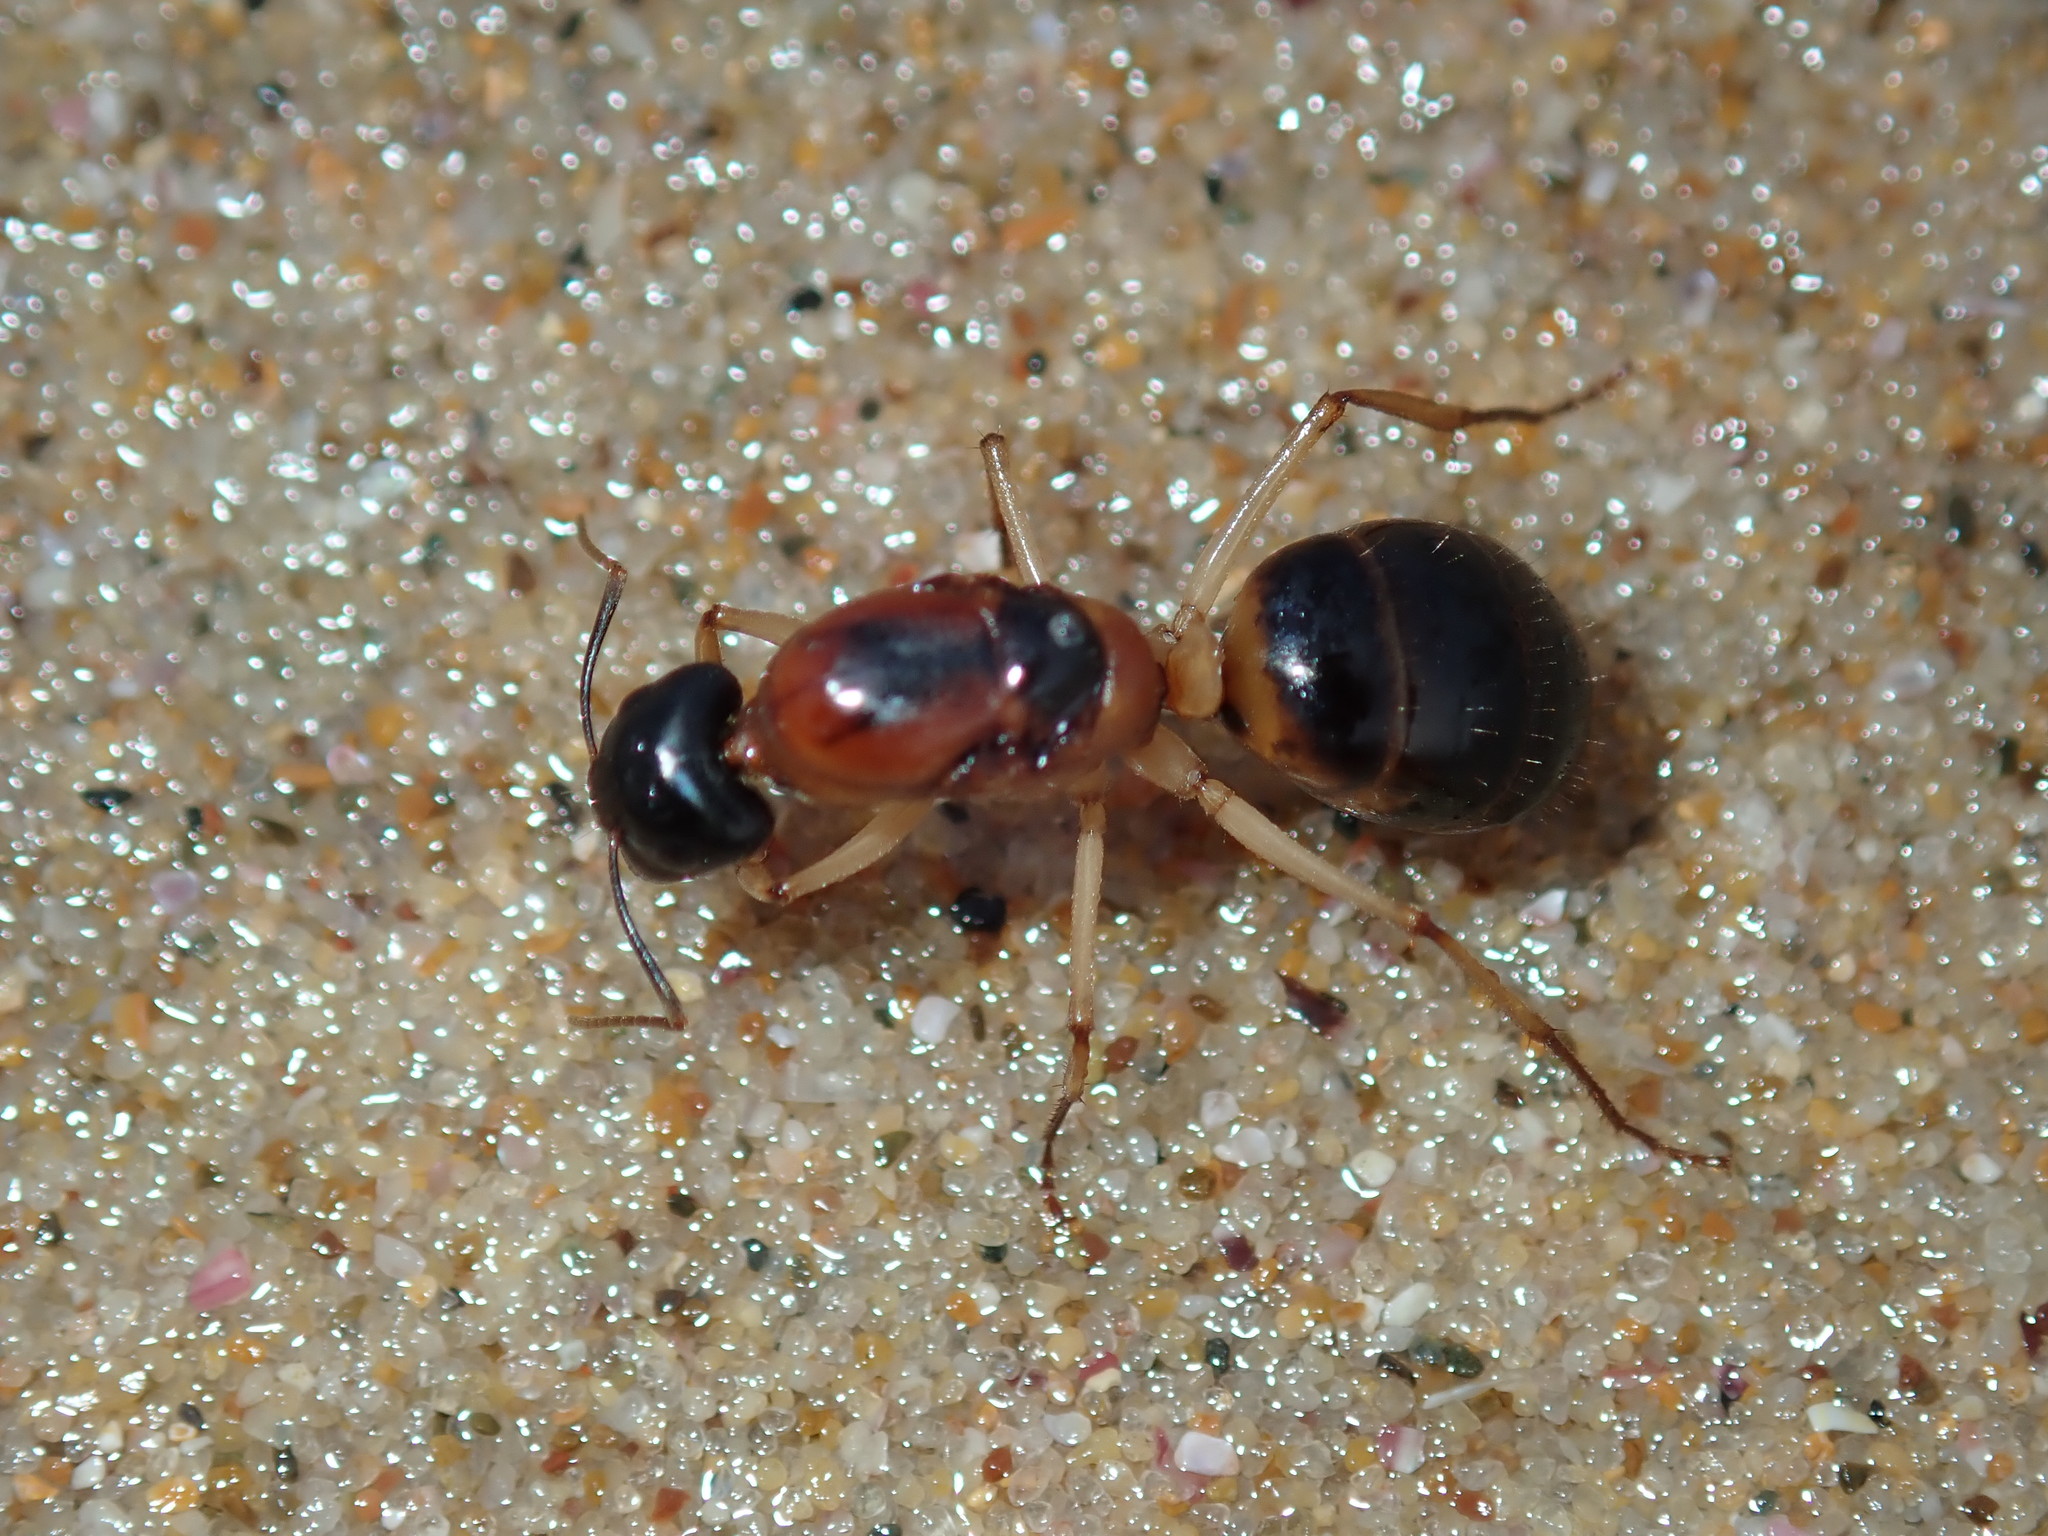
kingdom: Animalia
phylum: Arthropoda
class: Insecta
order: Hymenoptera
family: Formicidae
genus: Camponotus
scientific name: Camponotus consobrinus
